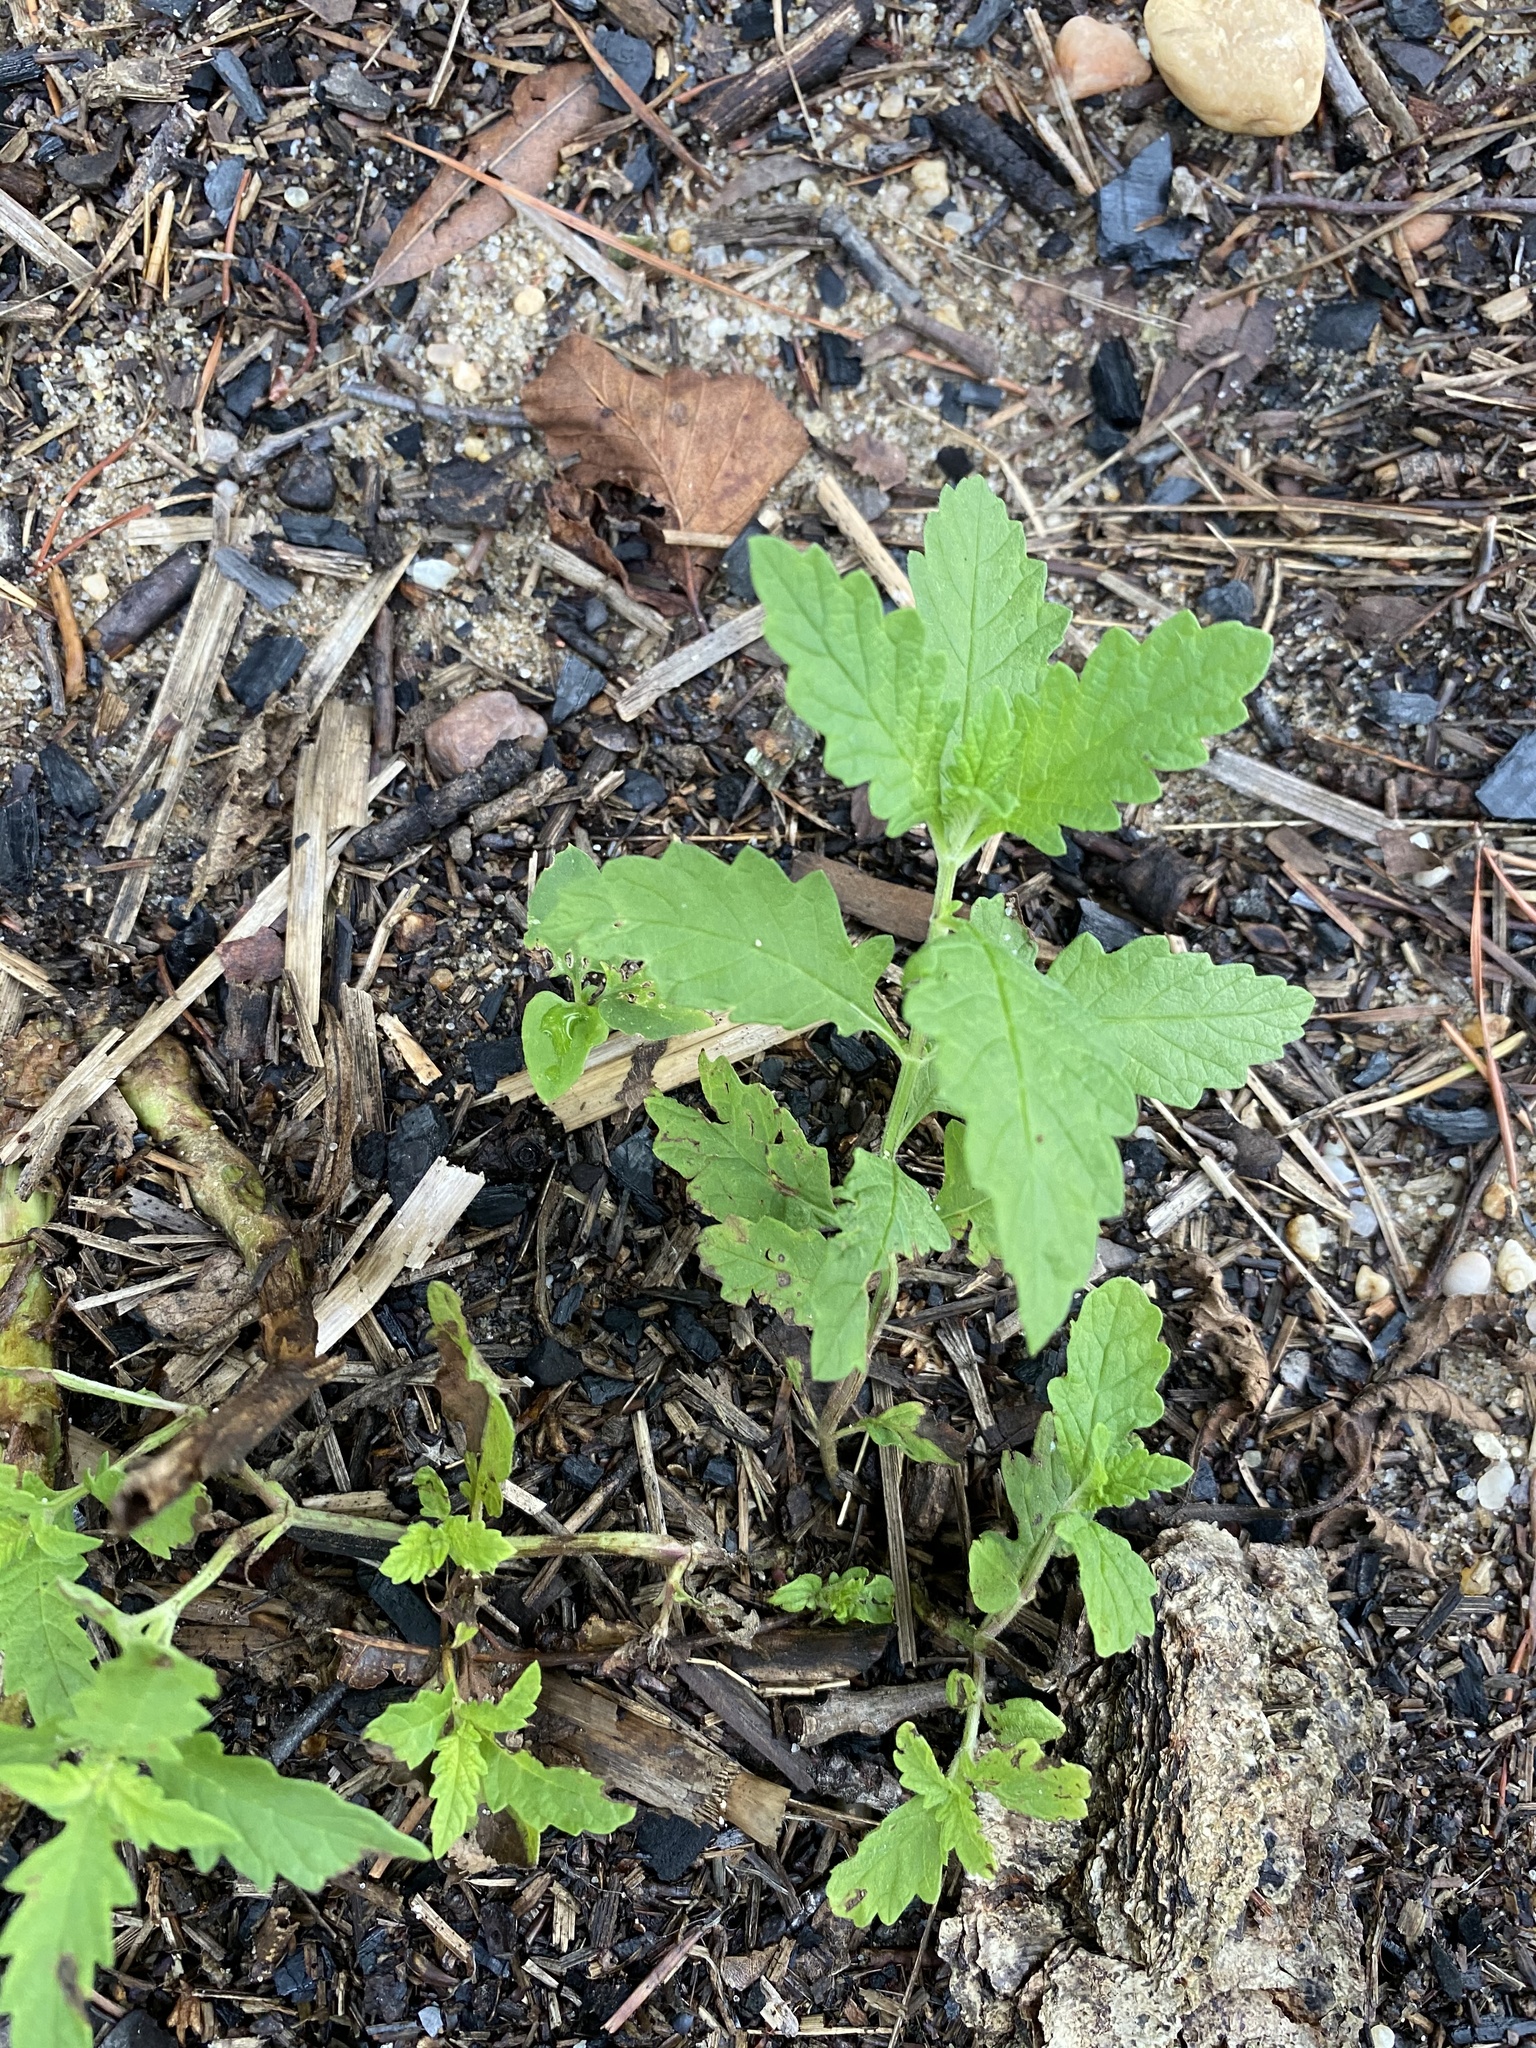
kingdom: Plantae
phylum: Tracheophyta
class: Magnoliopsida
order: Caryophyllales
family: Amaranthaceae
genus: Dysphania
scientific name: Dysphania ambrosioides
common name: Wormseed
